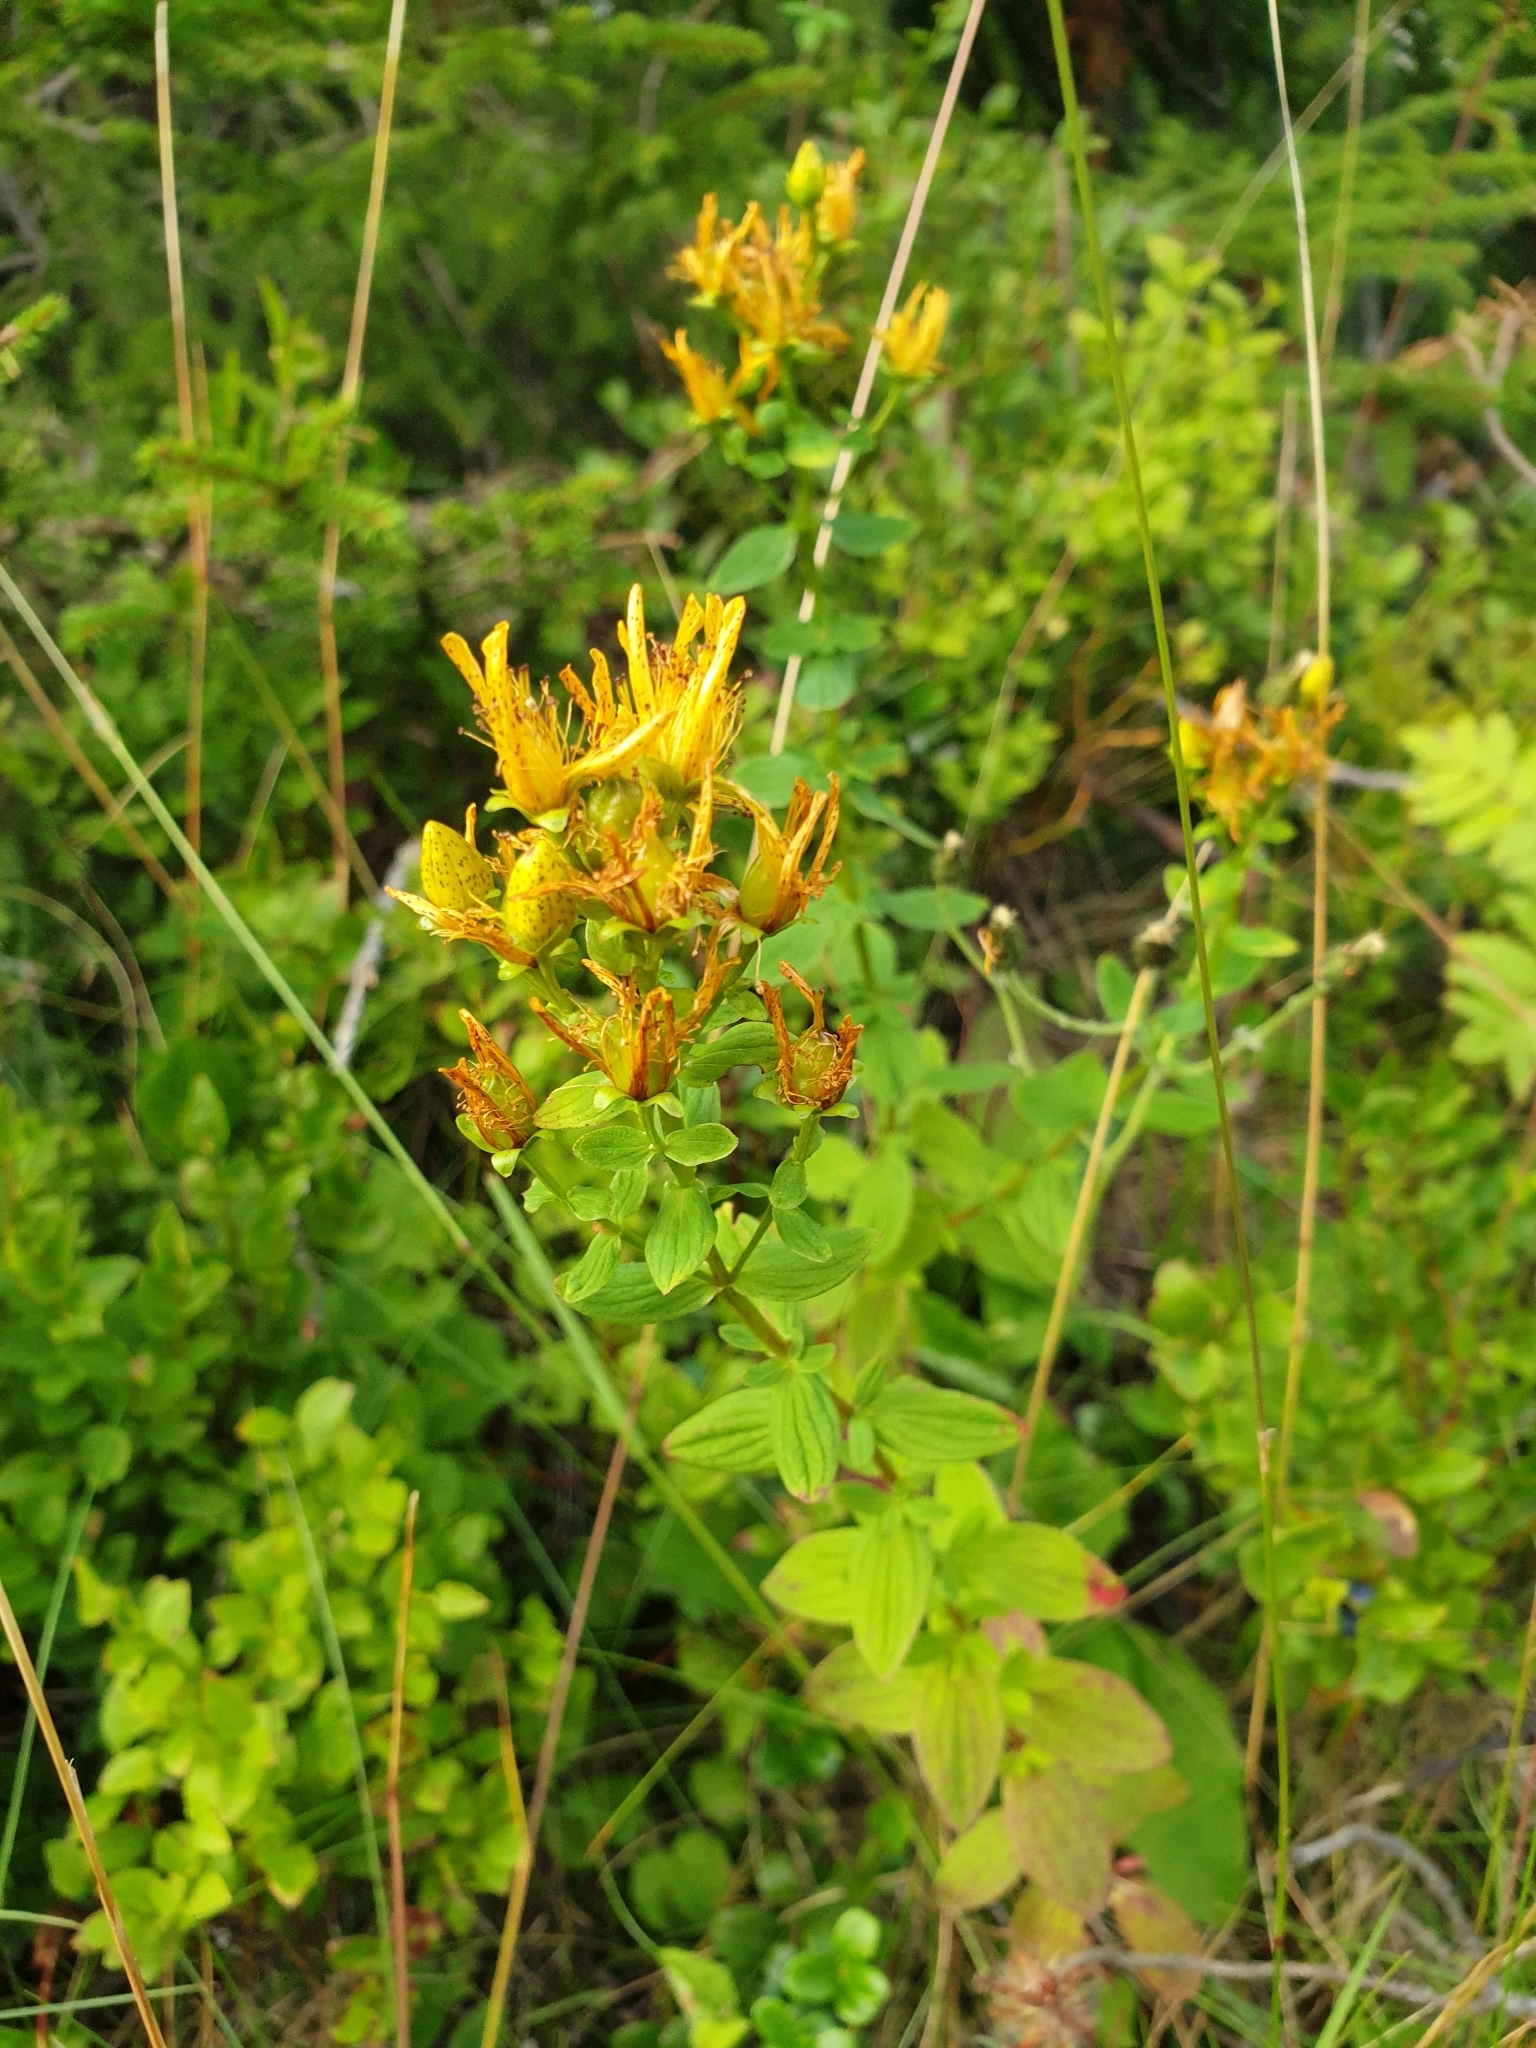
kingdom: Plantae
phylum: Tracheophyta
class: Magnoliopsida
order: Malpighiales
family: Hypericaceae
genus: Hypericum
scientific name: Hypericum maculatum
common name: Imperforate st. john's-wort
